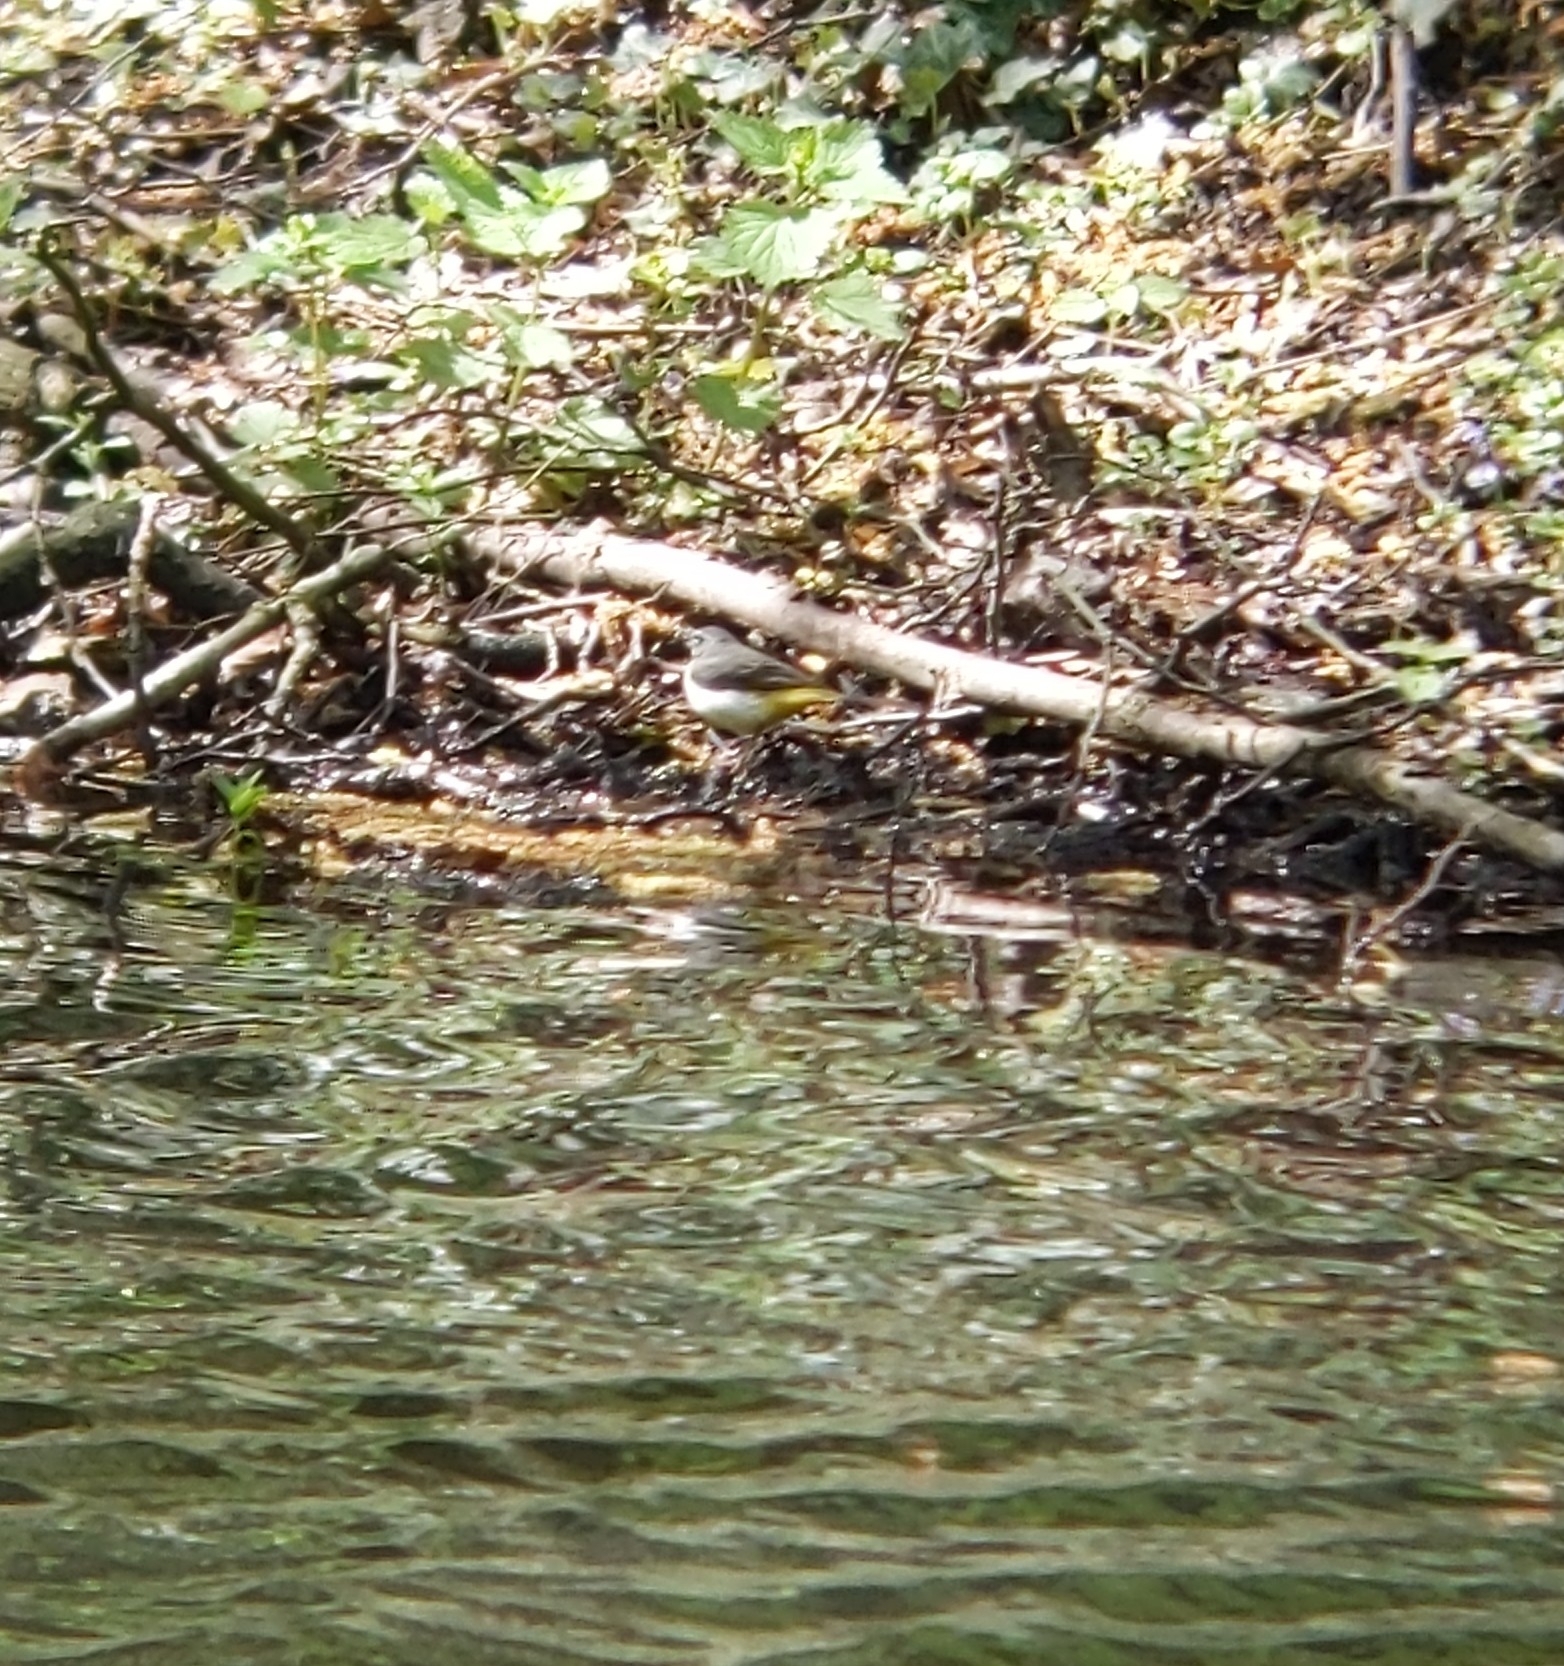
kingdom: Animalia
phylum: Chordata
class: Aves
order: Passeriformes
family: Motacillidae
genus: Motacilla
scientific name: Motacilla cinerea
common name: Grey wagtail
